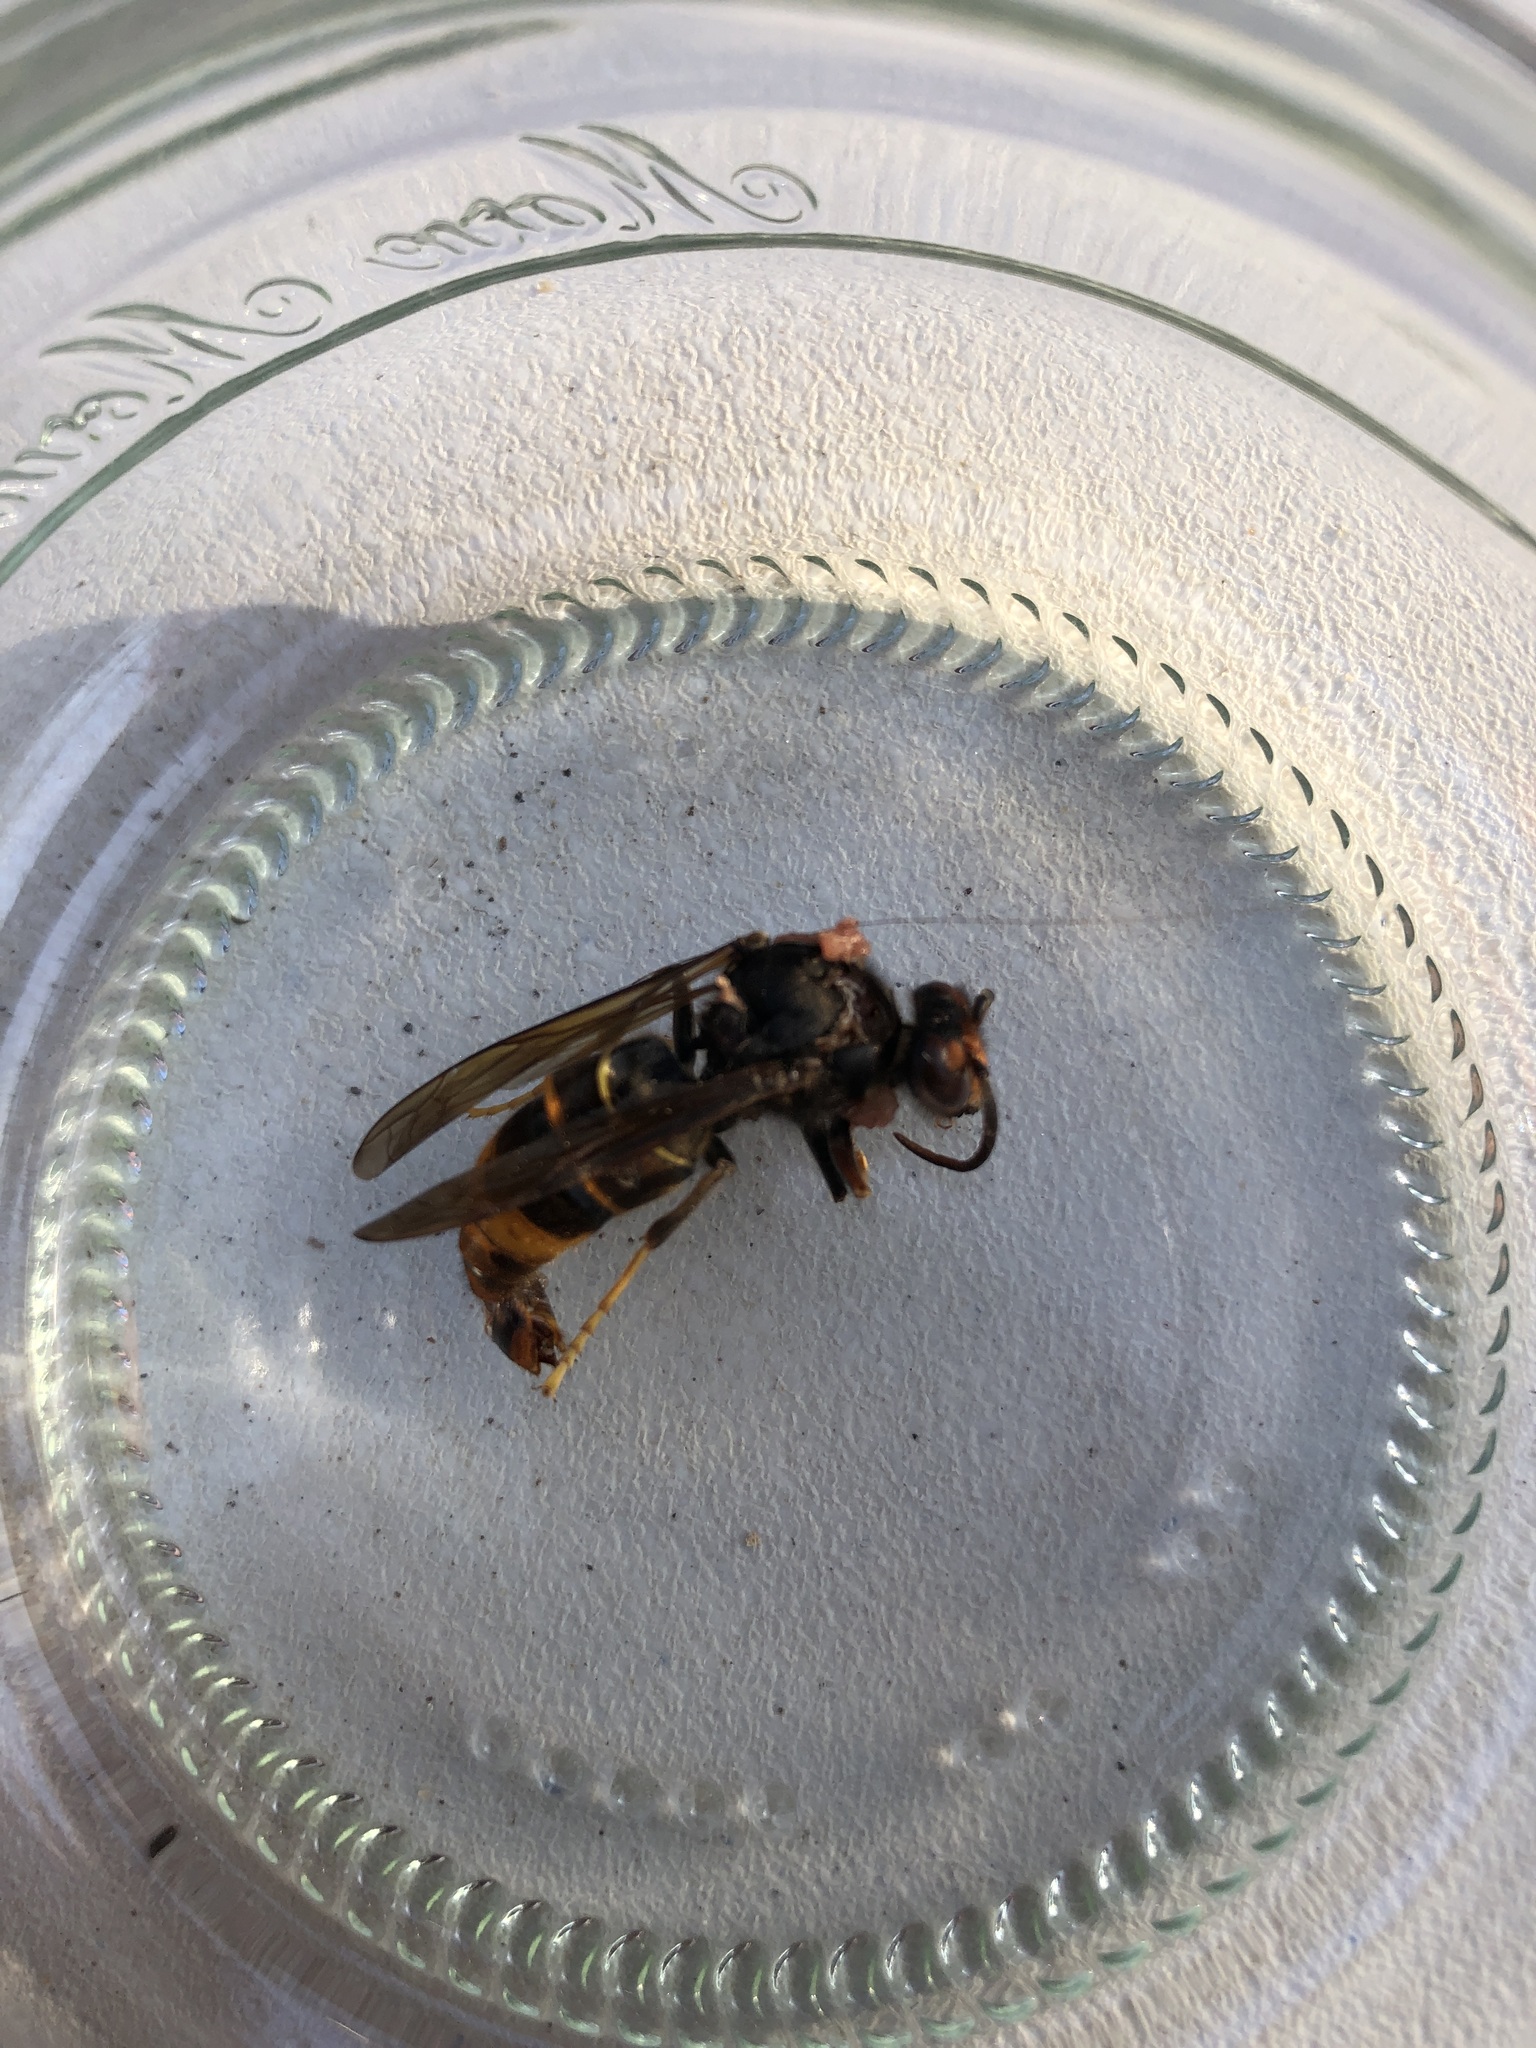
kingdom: Animalia
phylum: Arthropoda
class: Insecta
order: Hymenoptera
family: Vespidae
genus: Vespa
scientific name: Vespa velutina
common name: Asian hornet
